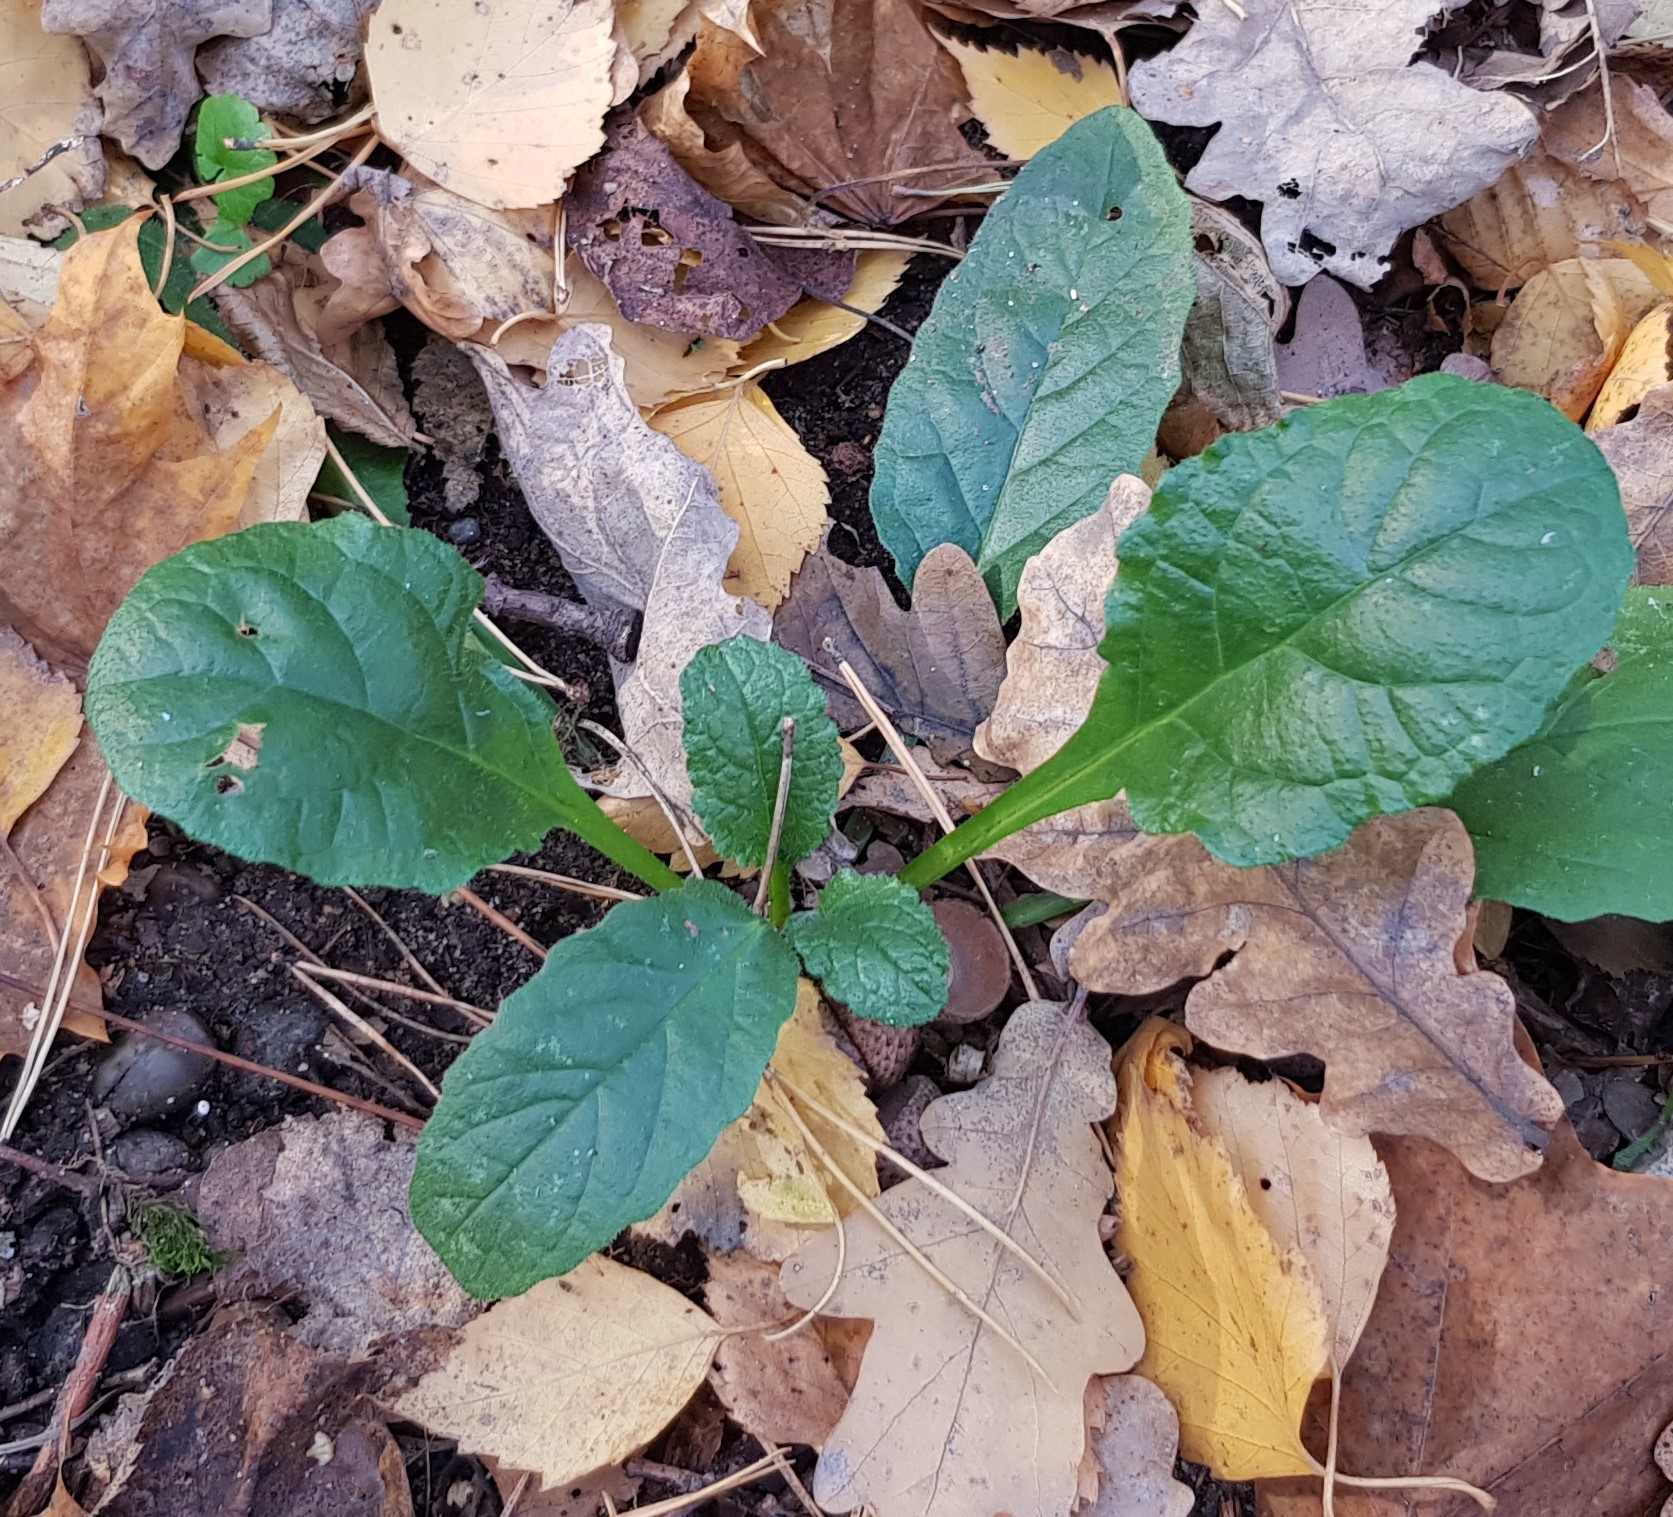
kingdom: Plantae
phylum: Tracheophyta
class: Magnoliopsida
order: Lamiales
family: Lamiaceae
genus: Ajuga
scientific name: Ajuga reptans
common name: Bugle
